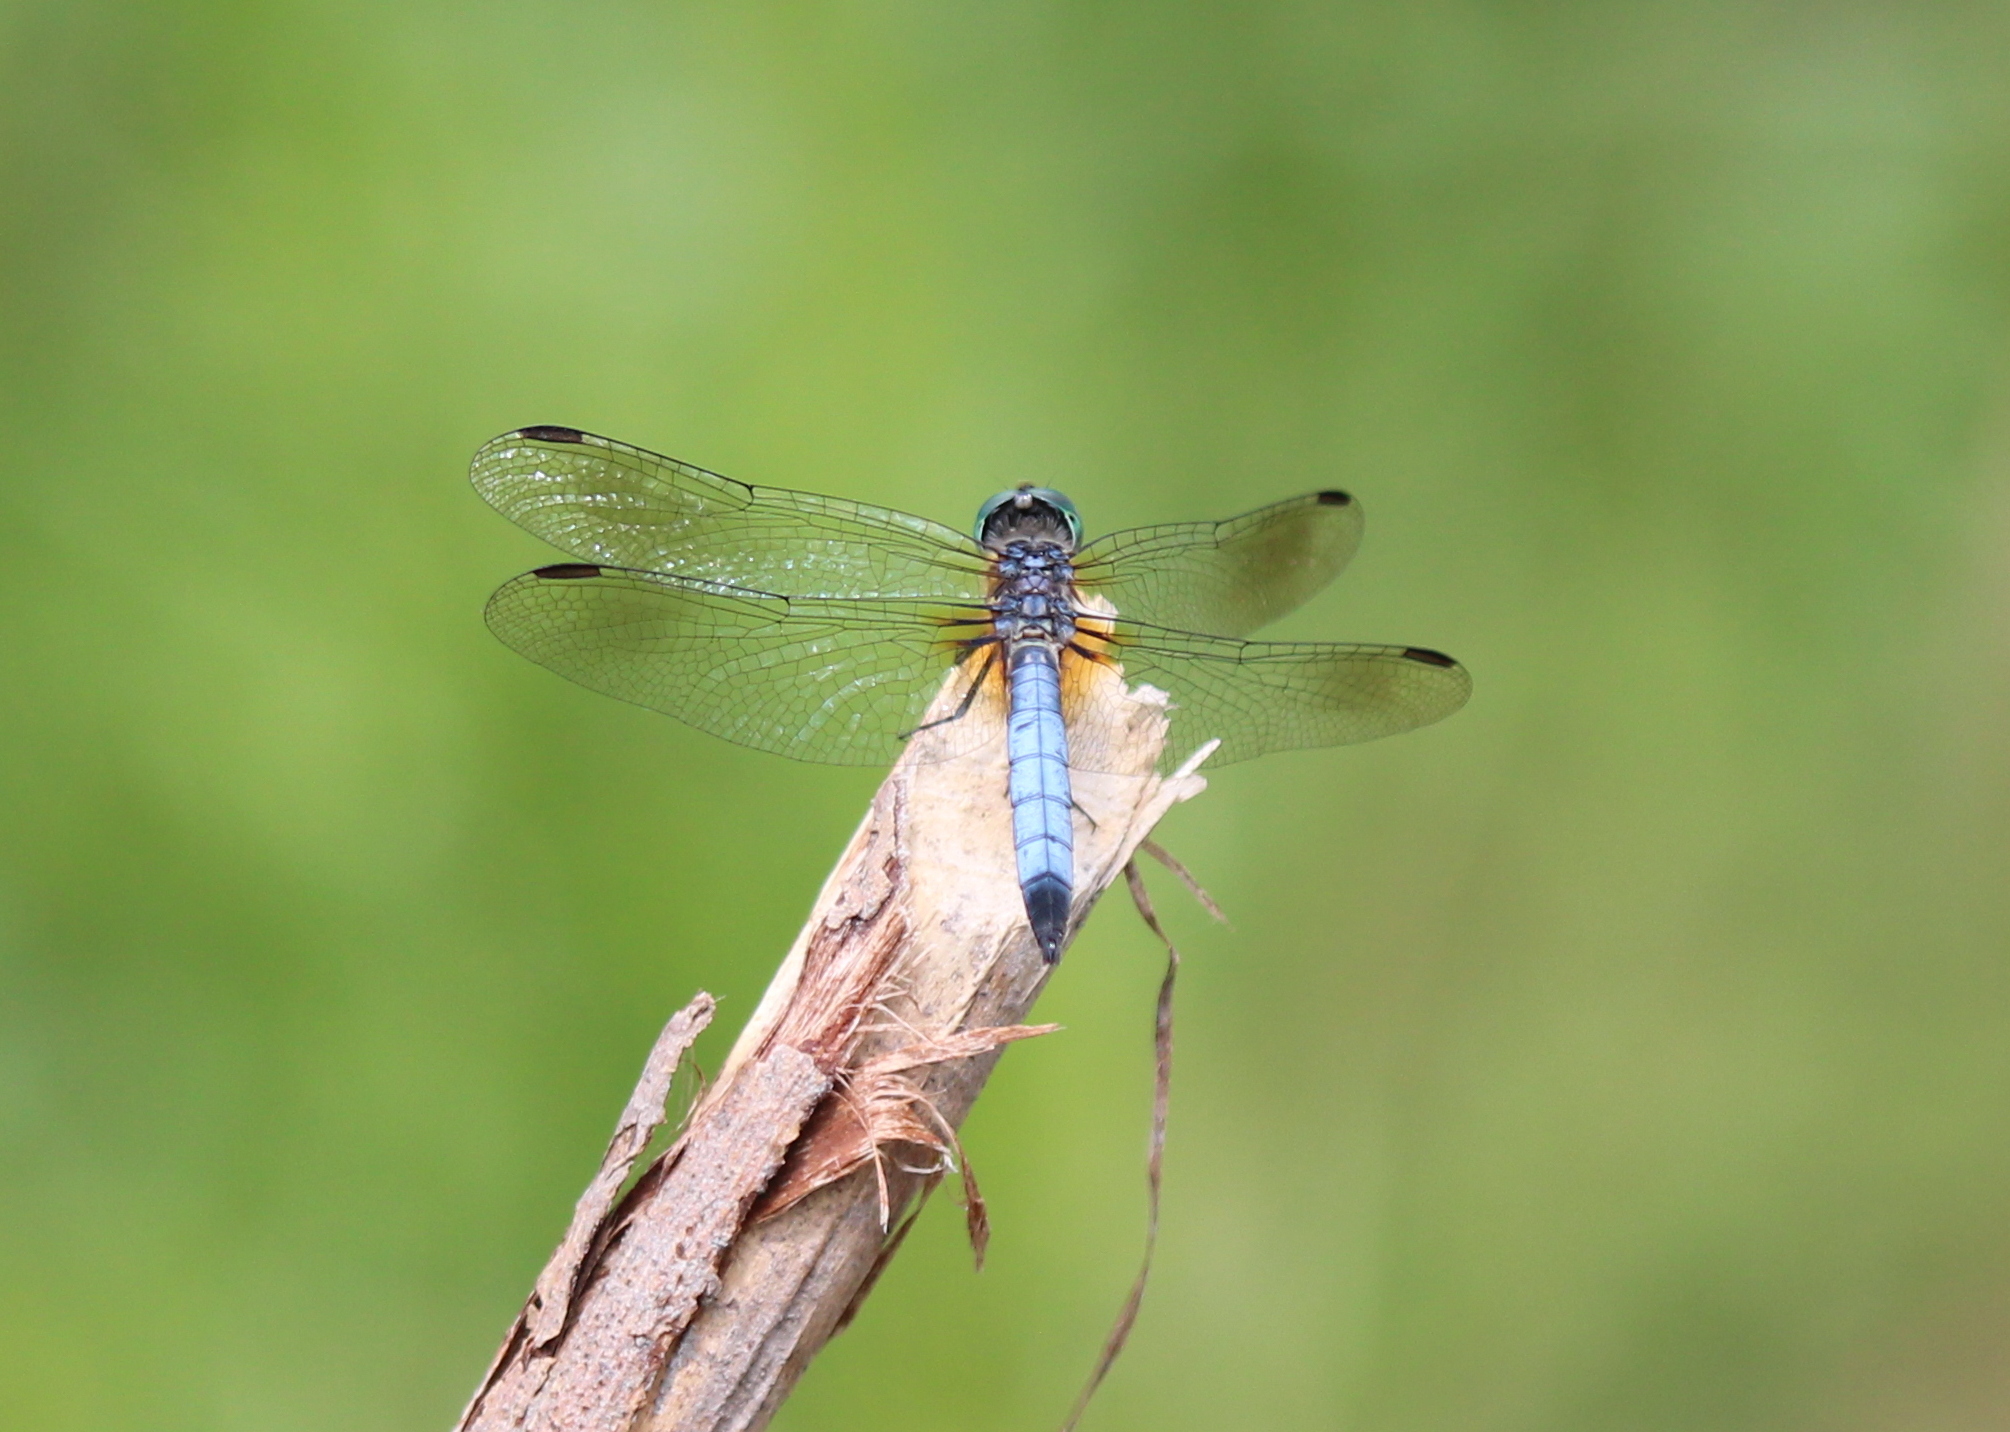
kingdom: Animalia
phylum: Arthropoda
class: Insecta
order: Odonata
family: Libellulidae
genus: Pachydiplax
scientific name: Pachydiplax longipennis
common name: Blue dasher
